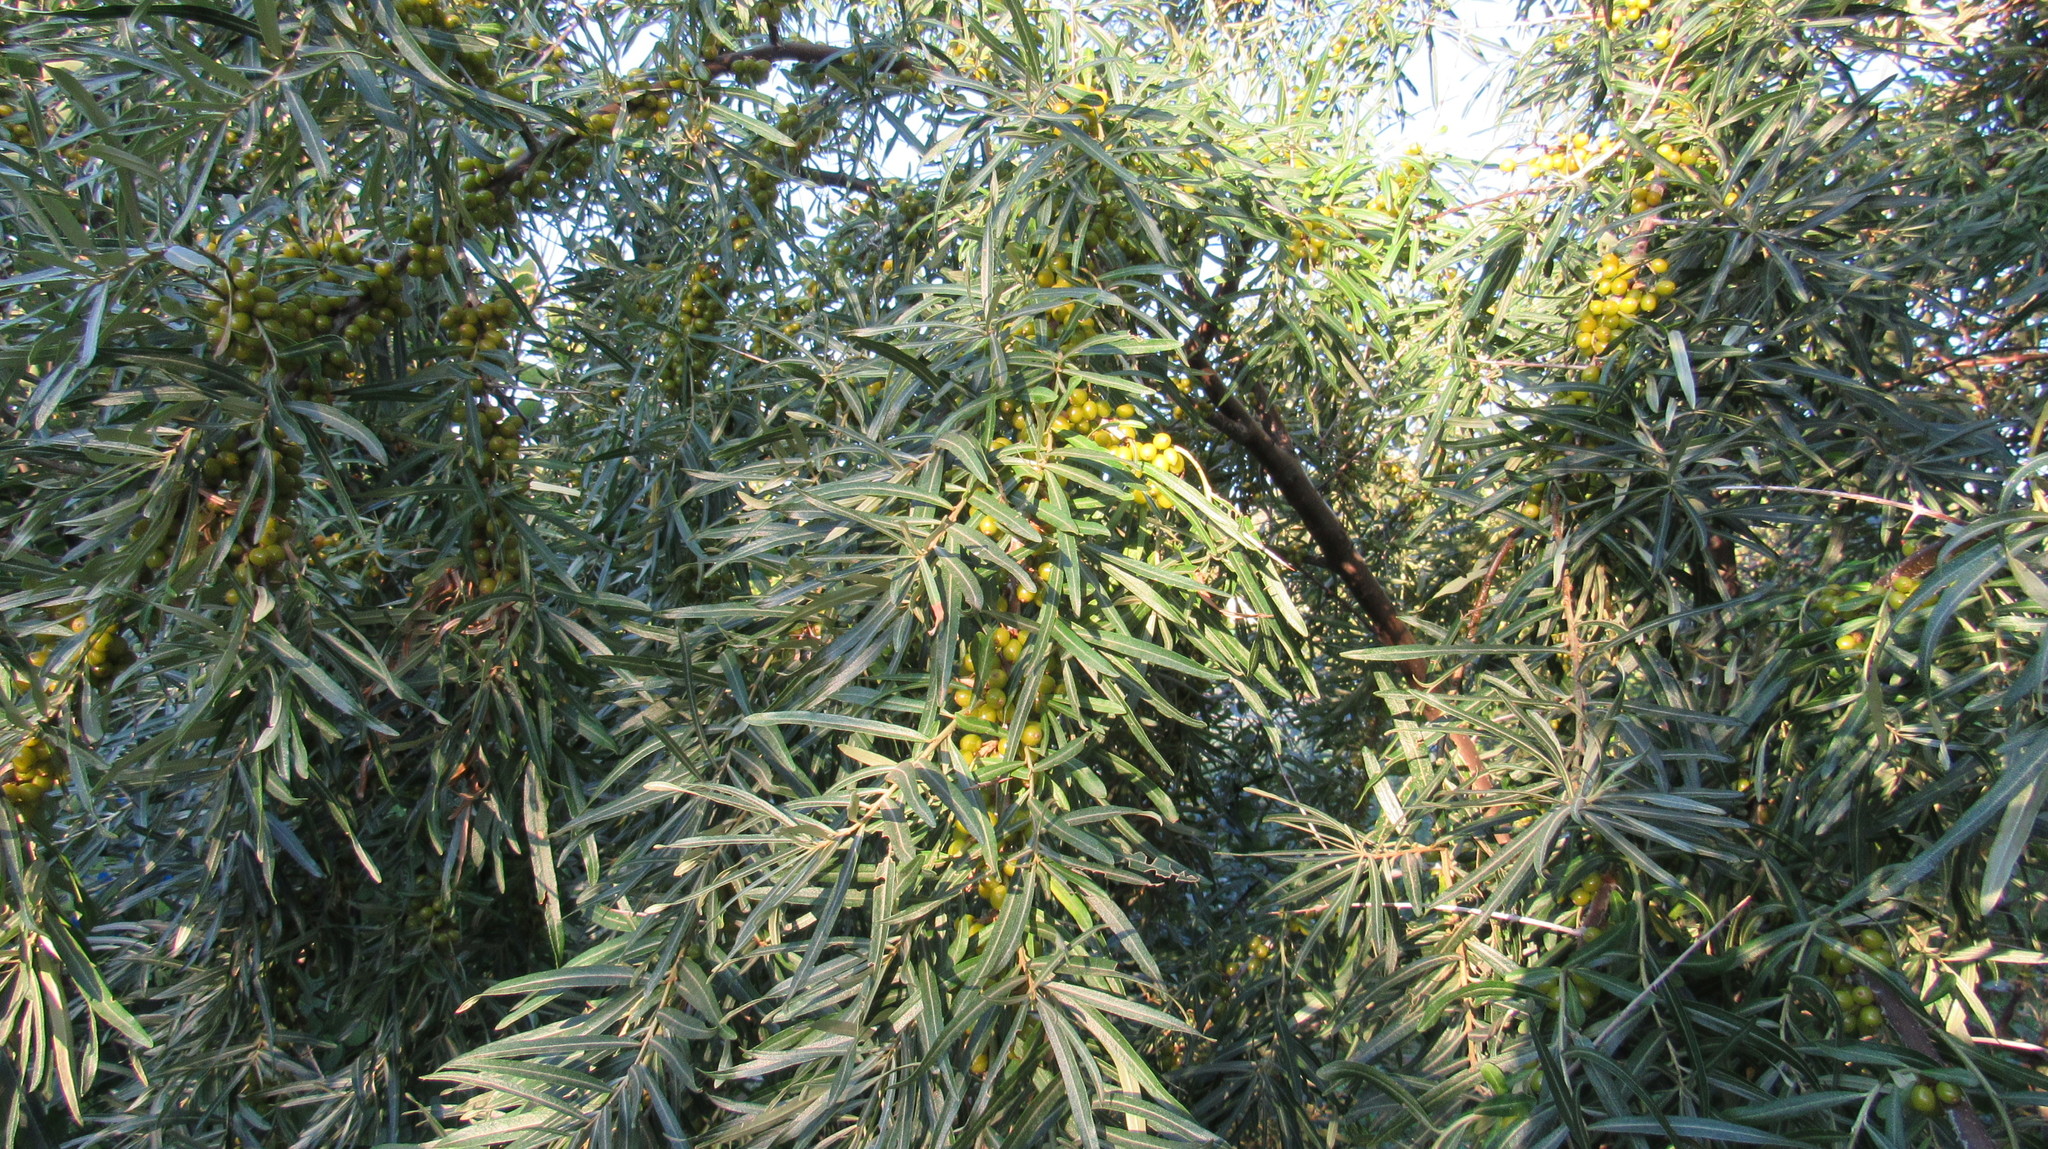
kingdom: Plantae
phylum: Tracheophyta
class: Magnoliopsida
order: Rosales
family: Elaeagnaceae
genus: Hippophae
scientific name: Hippophae rhamnoides
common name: Sea-buckthorn
